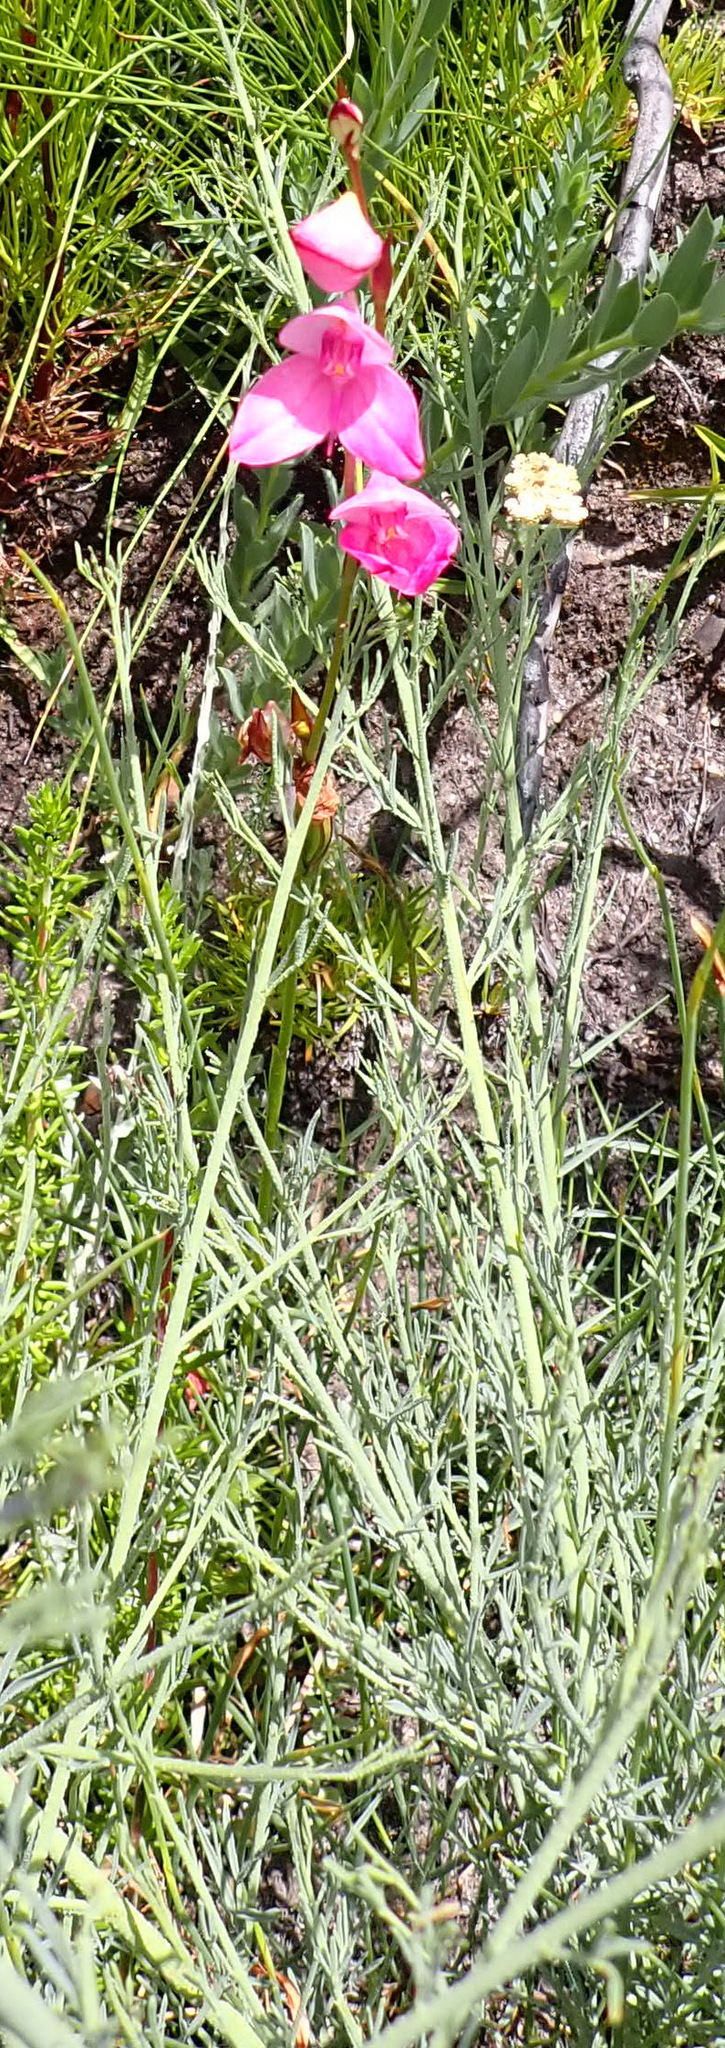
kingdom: Plantae
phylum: Tracheophyta
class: Liliopsida
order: Asparagales
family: Orchidaceae
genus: Disa
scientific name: Disa racemosa
